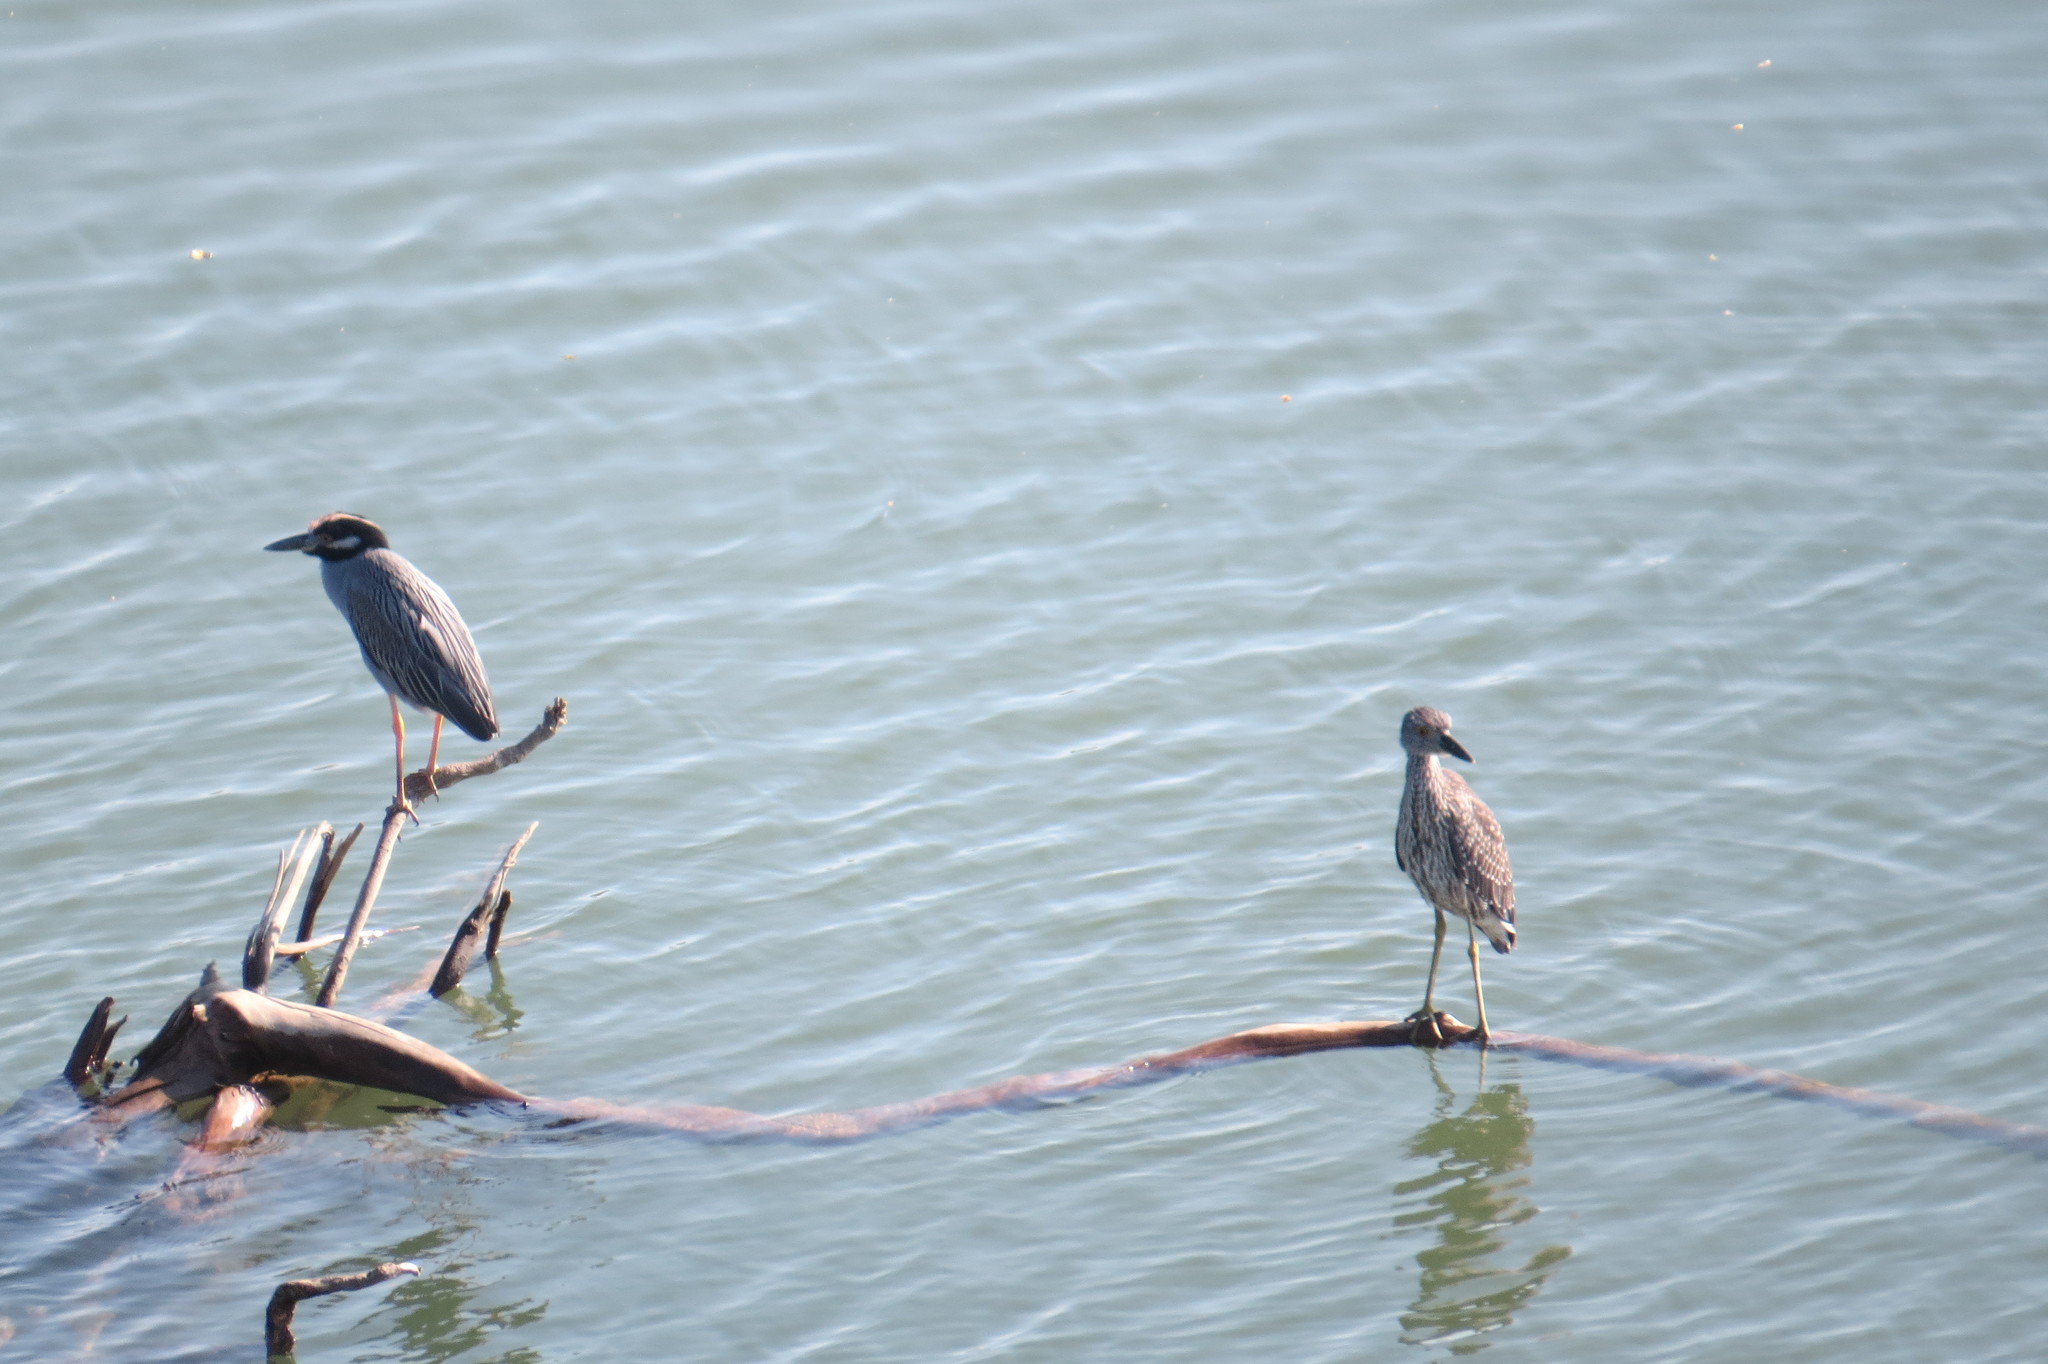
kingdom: Animalia
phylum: Chordata
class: Aves
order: Pelecaniformes
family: Ardeidae
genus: Nyctanassa
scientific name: Nyctanassa violacea
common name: Yellow-crowned night heron
